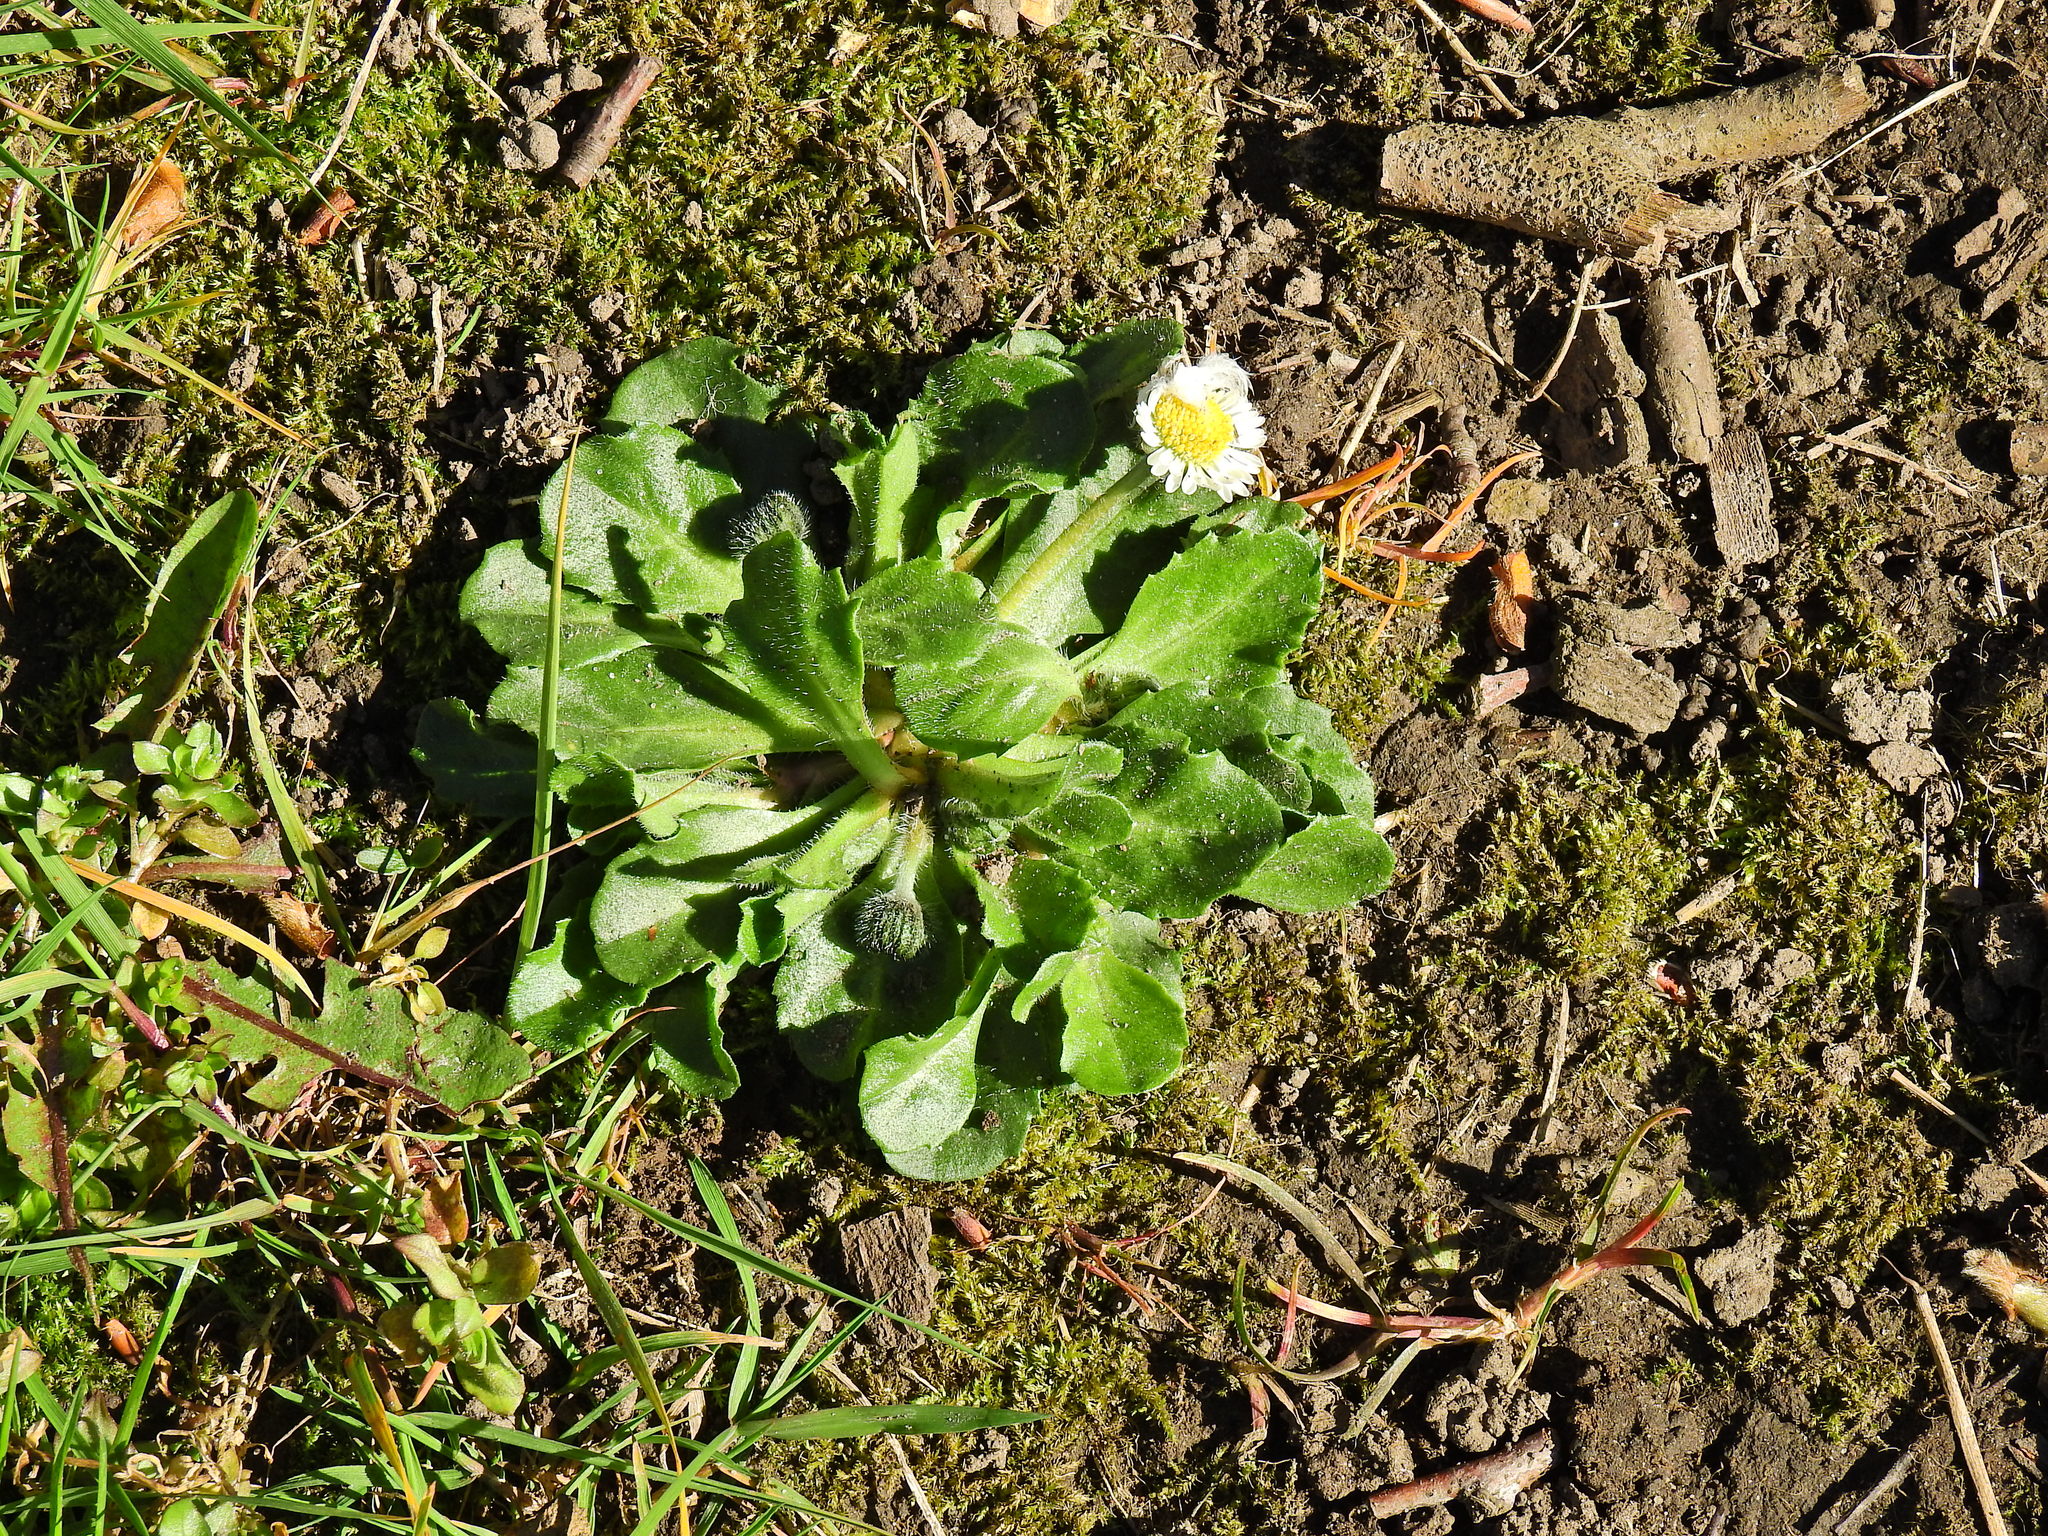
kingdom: Plantae
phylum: Tracheophyta
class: Magnoliopsida
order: Asterales
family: Asteraceae
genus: Bellis
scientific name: Bellis perennis
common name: Lawndaisy
